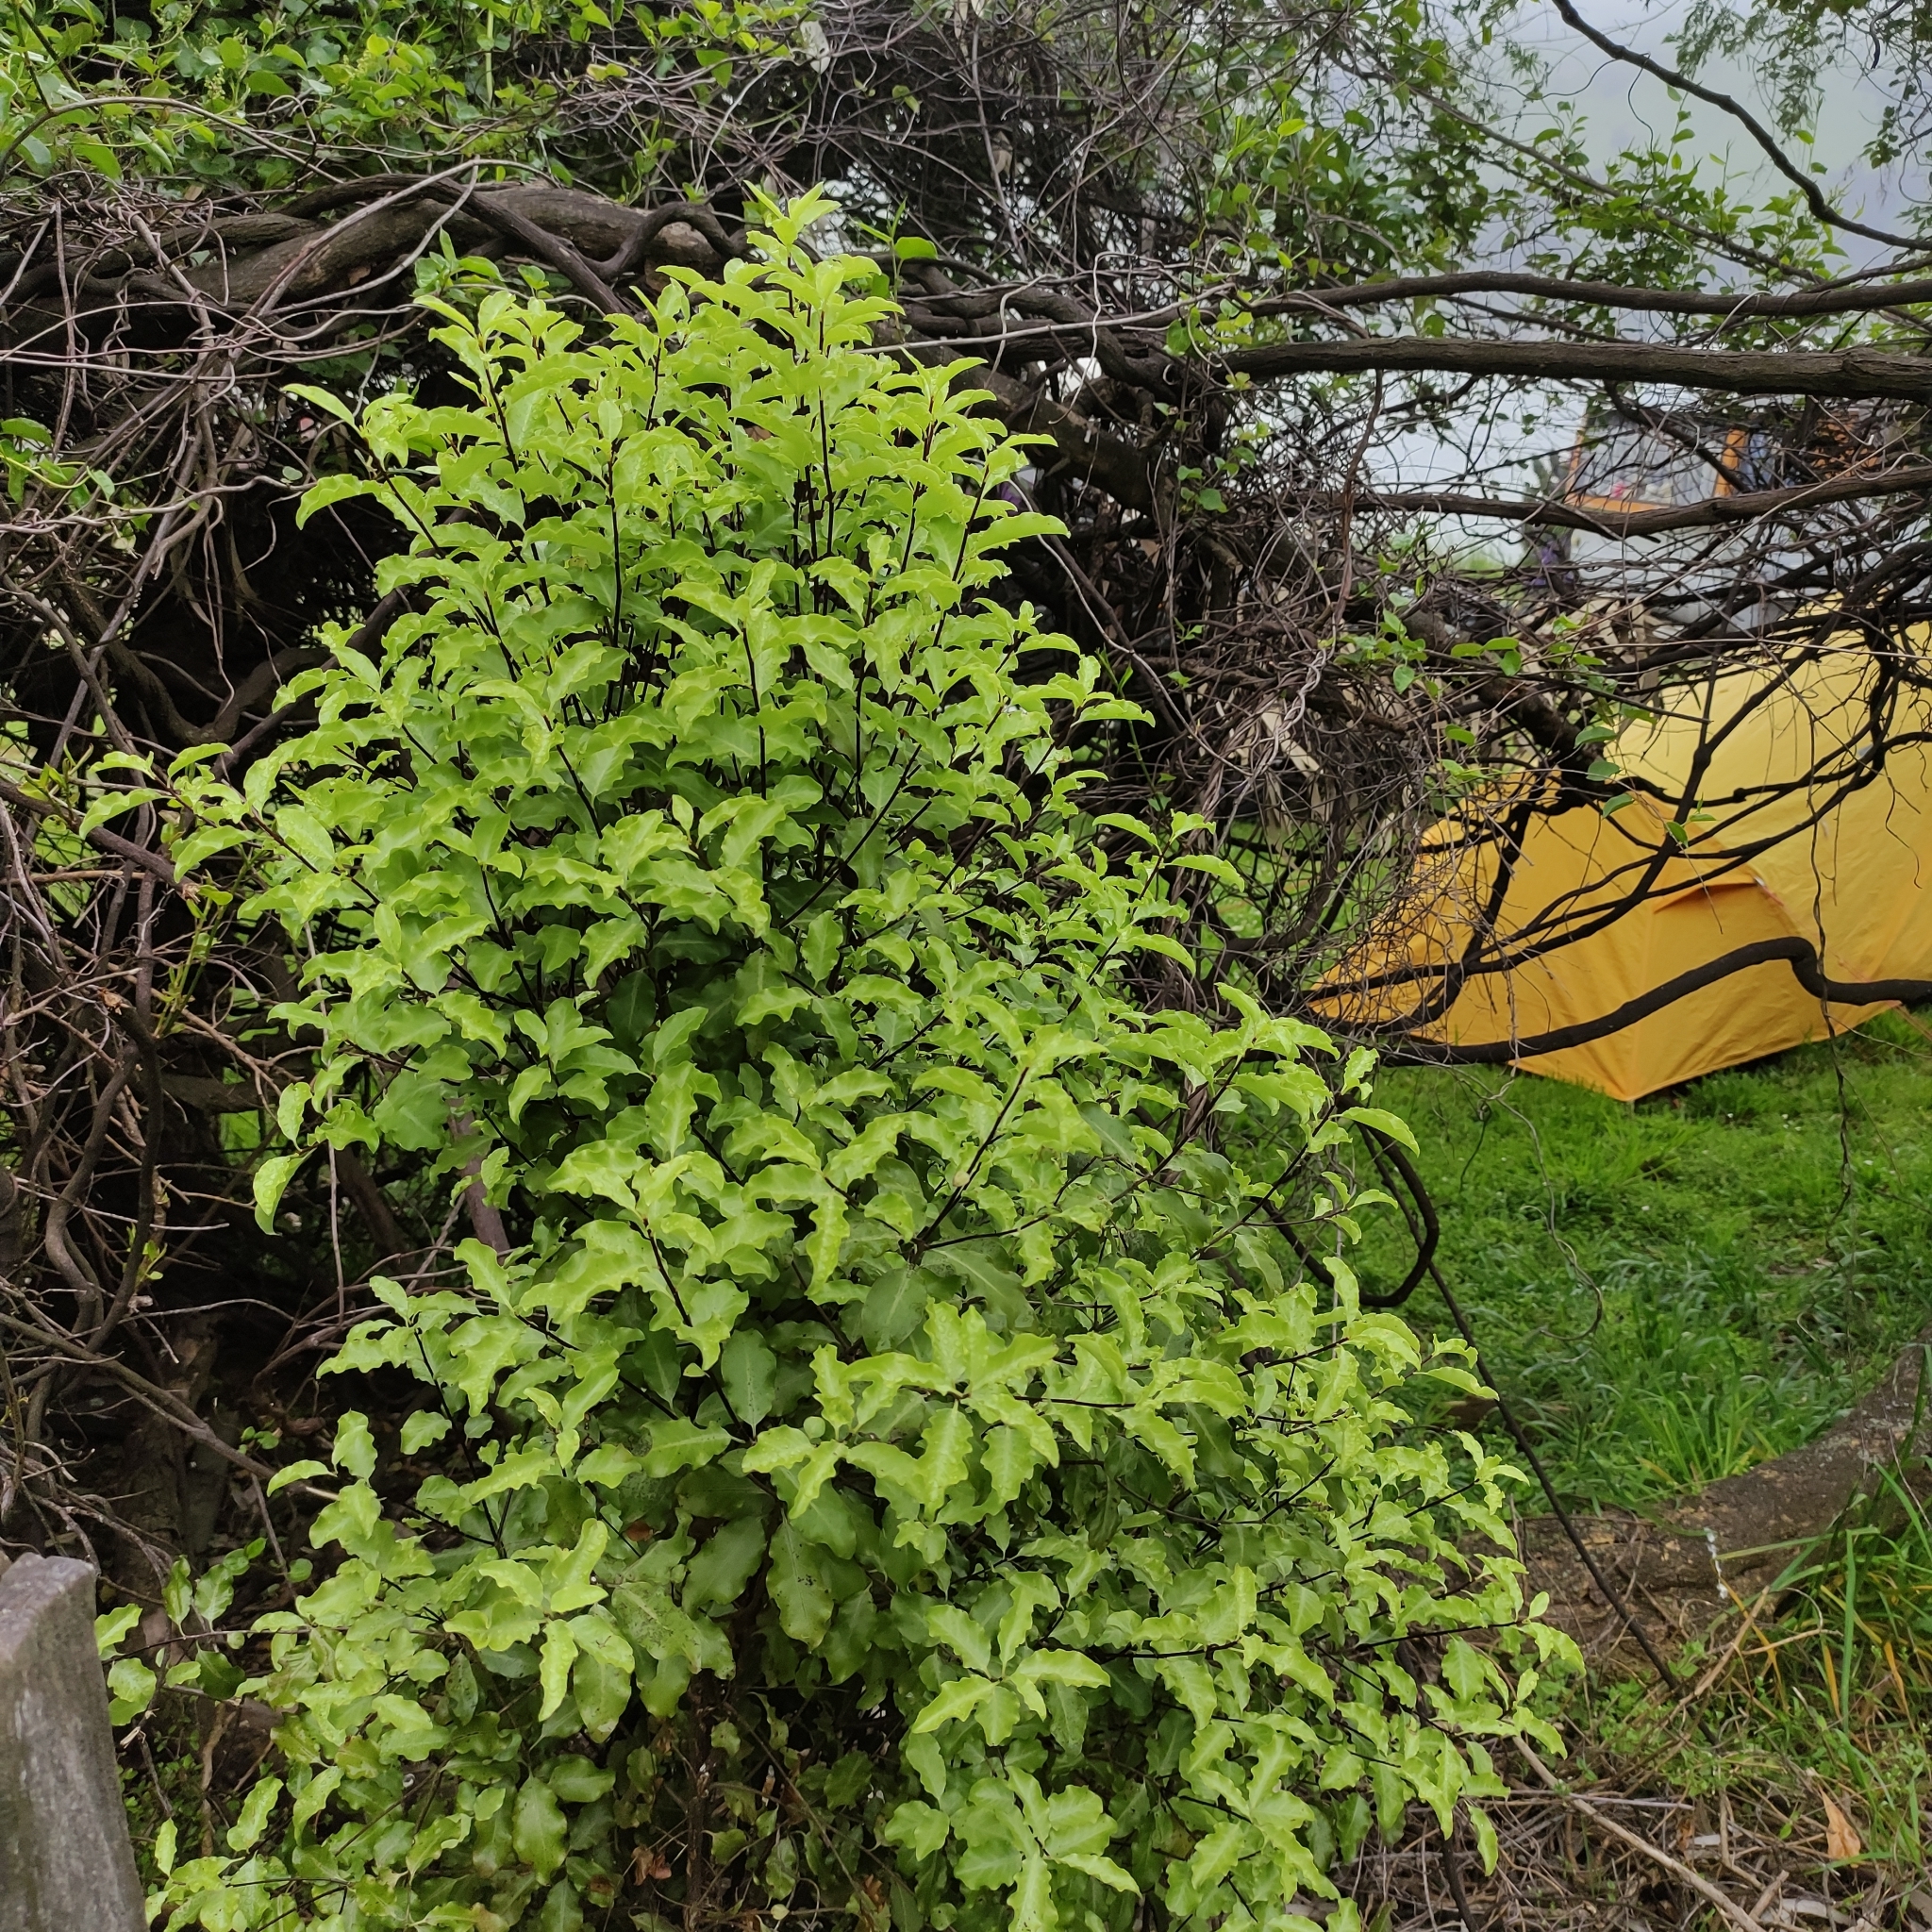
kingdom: Plantae
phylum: Tracheophyta
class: Magnoliopsida
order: Apiales
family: Pittosporaceae
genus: Pittosporum
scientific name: Pittosporum tenuifolium
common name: Kohuhu
